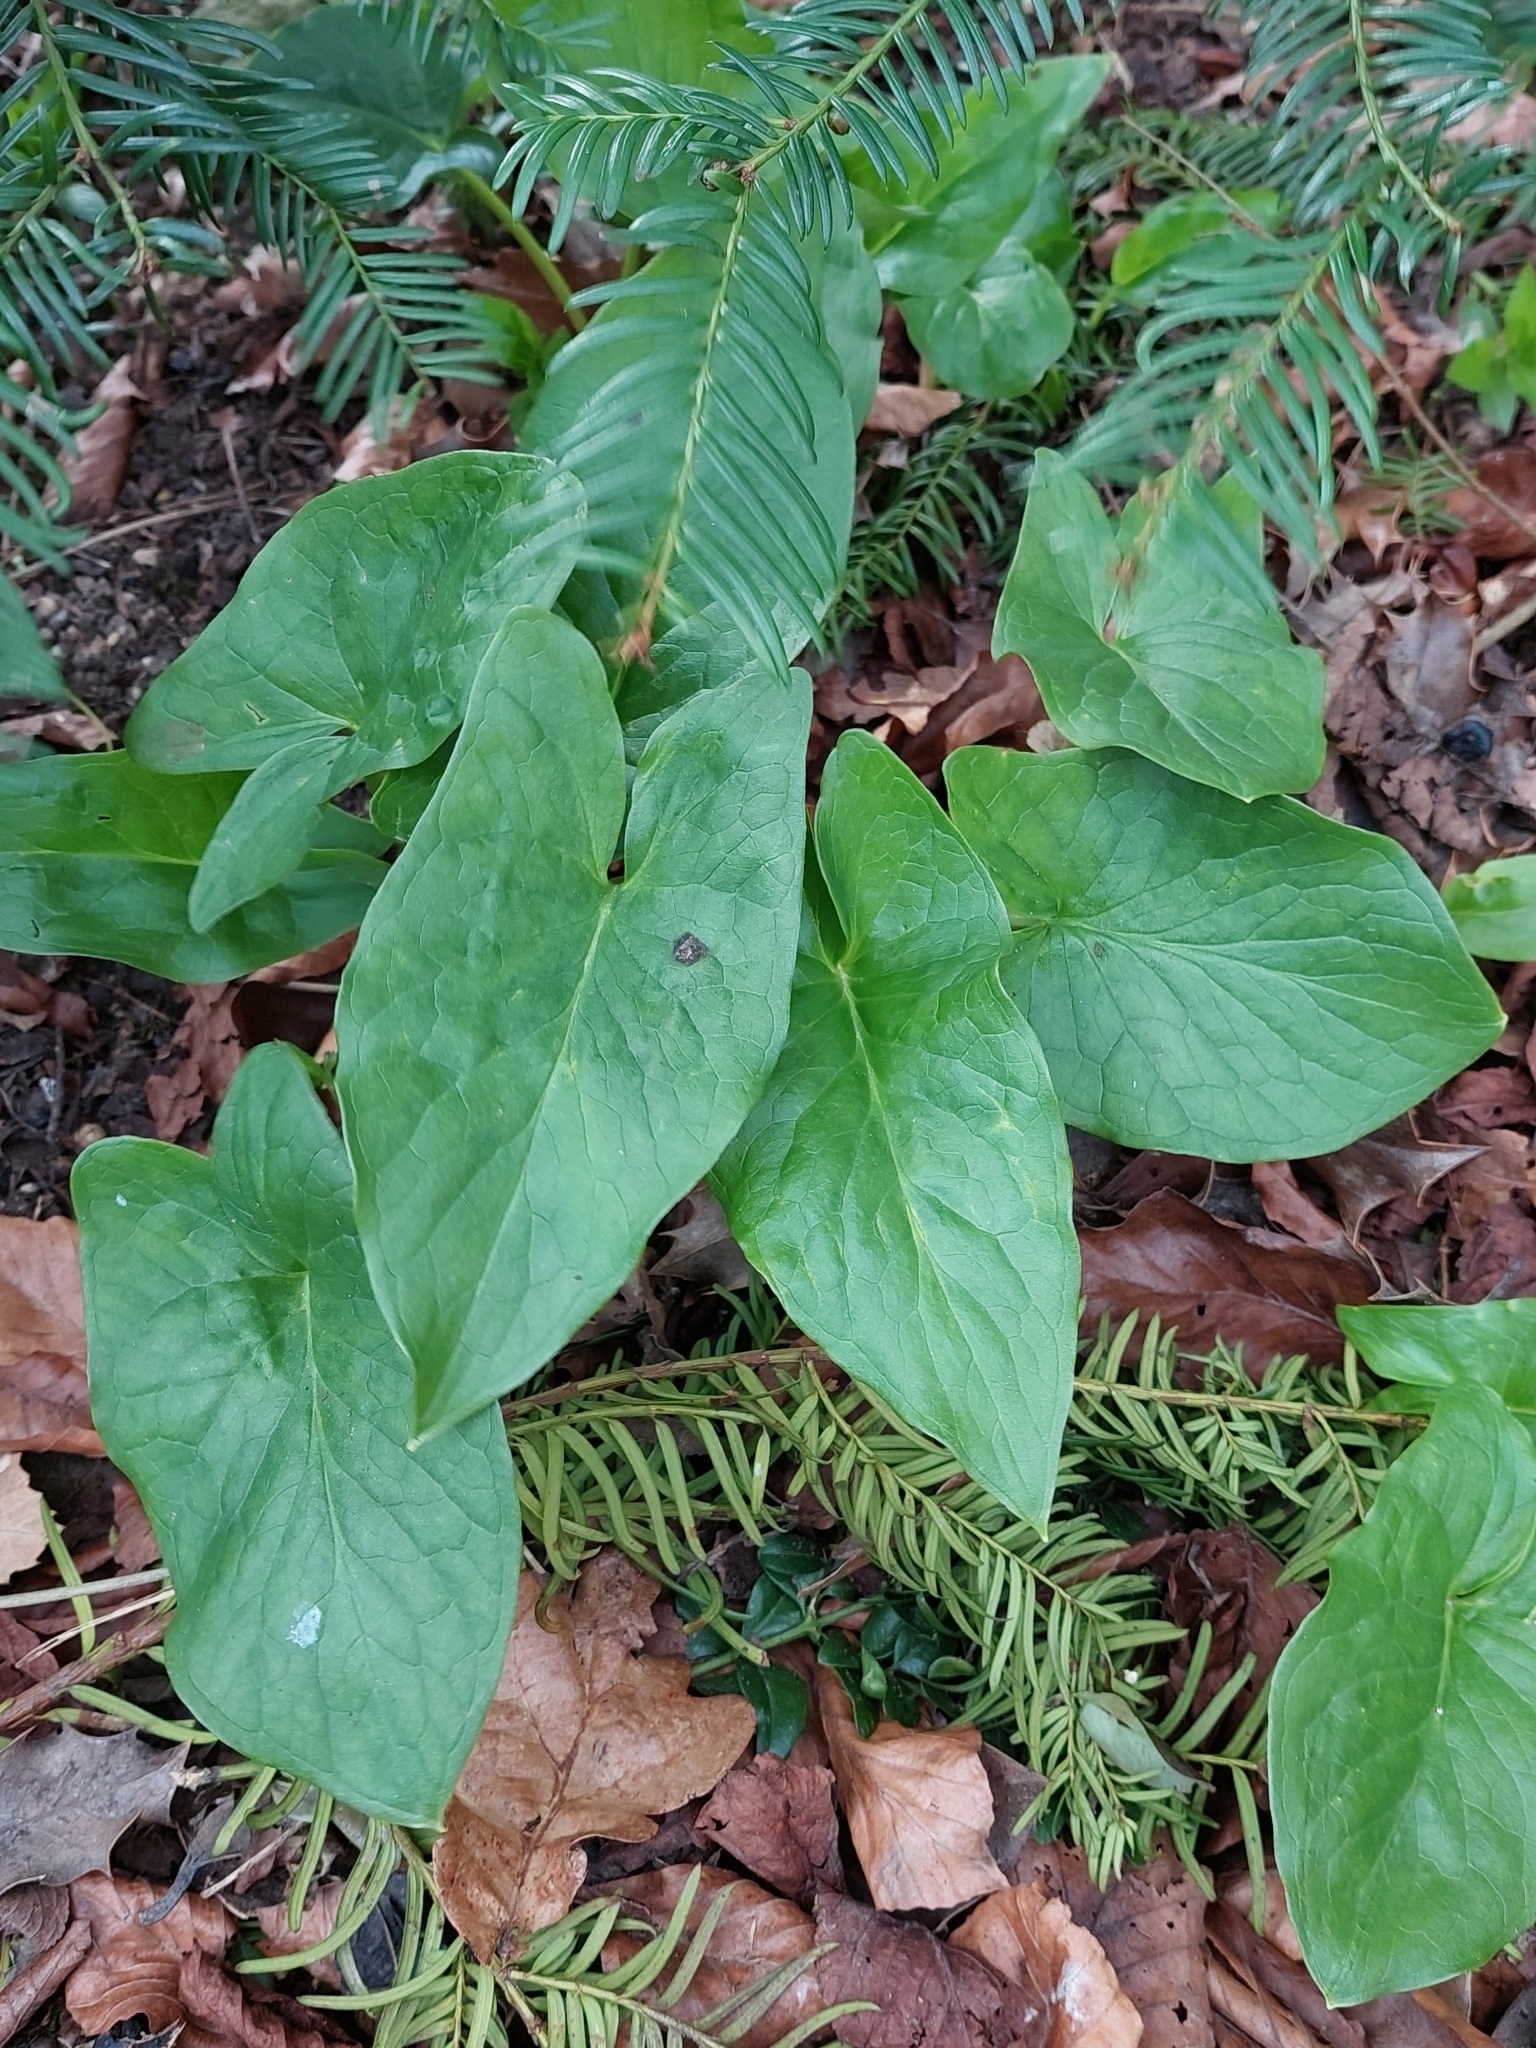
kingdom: Plantae
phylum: Tracheophyta
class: Liliopsida
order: Alismatales
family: Araceae
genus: Arum
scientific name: Arum maculatum
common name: Lords-and-ladies
